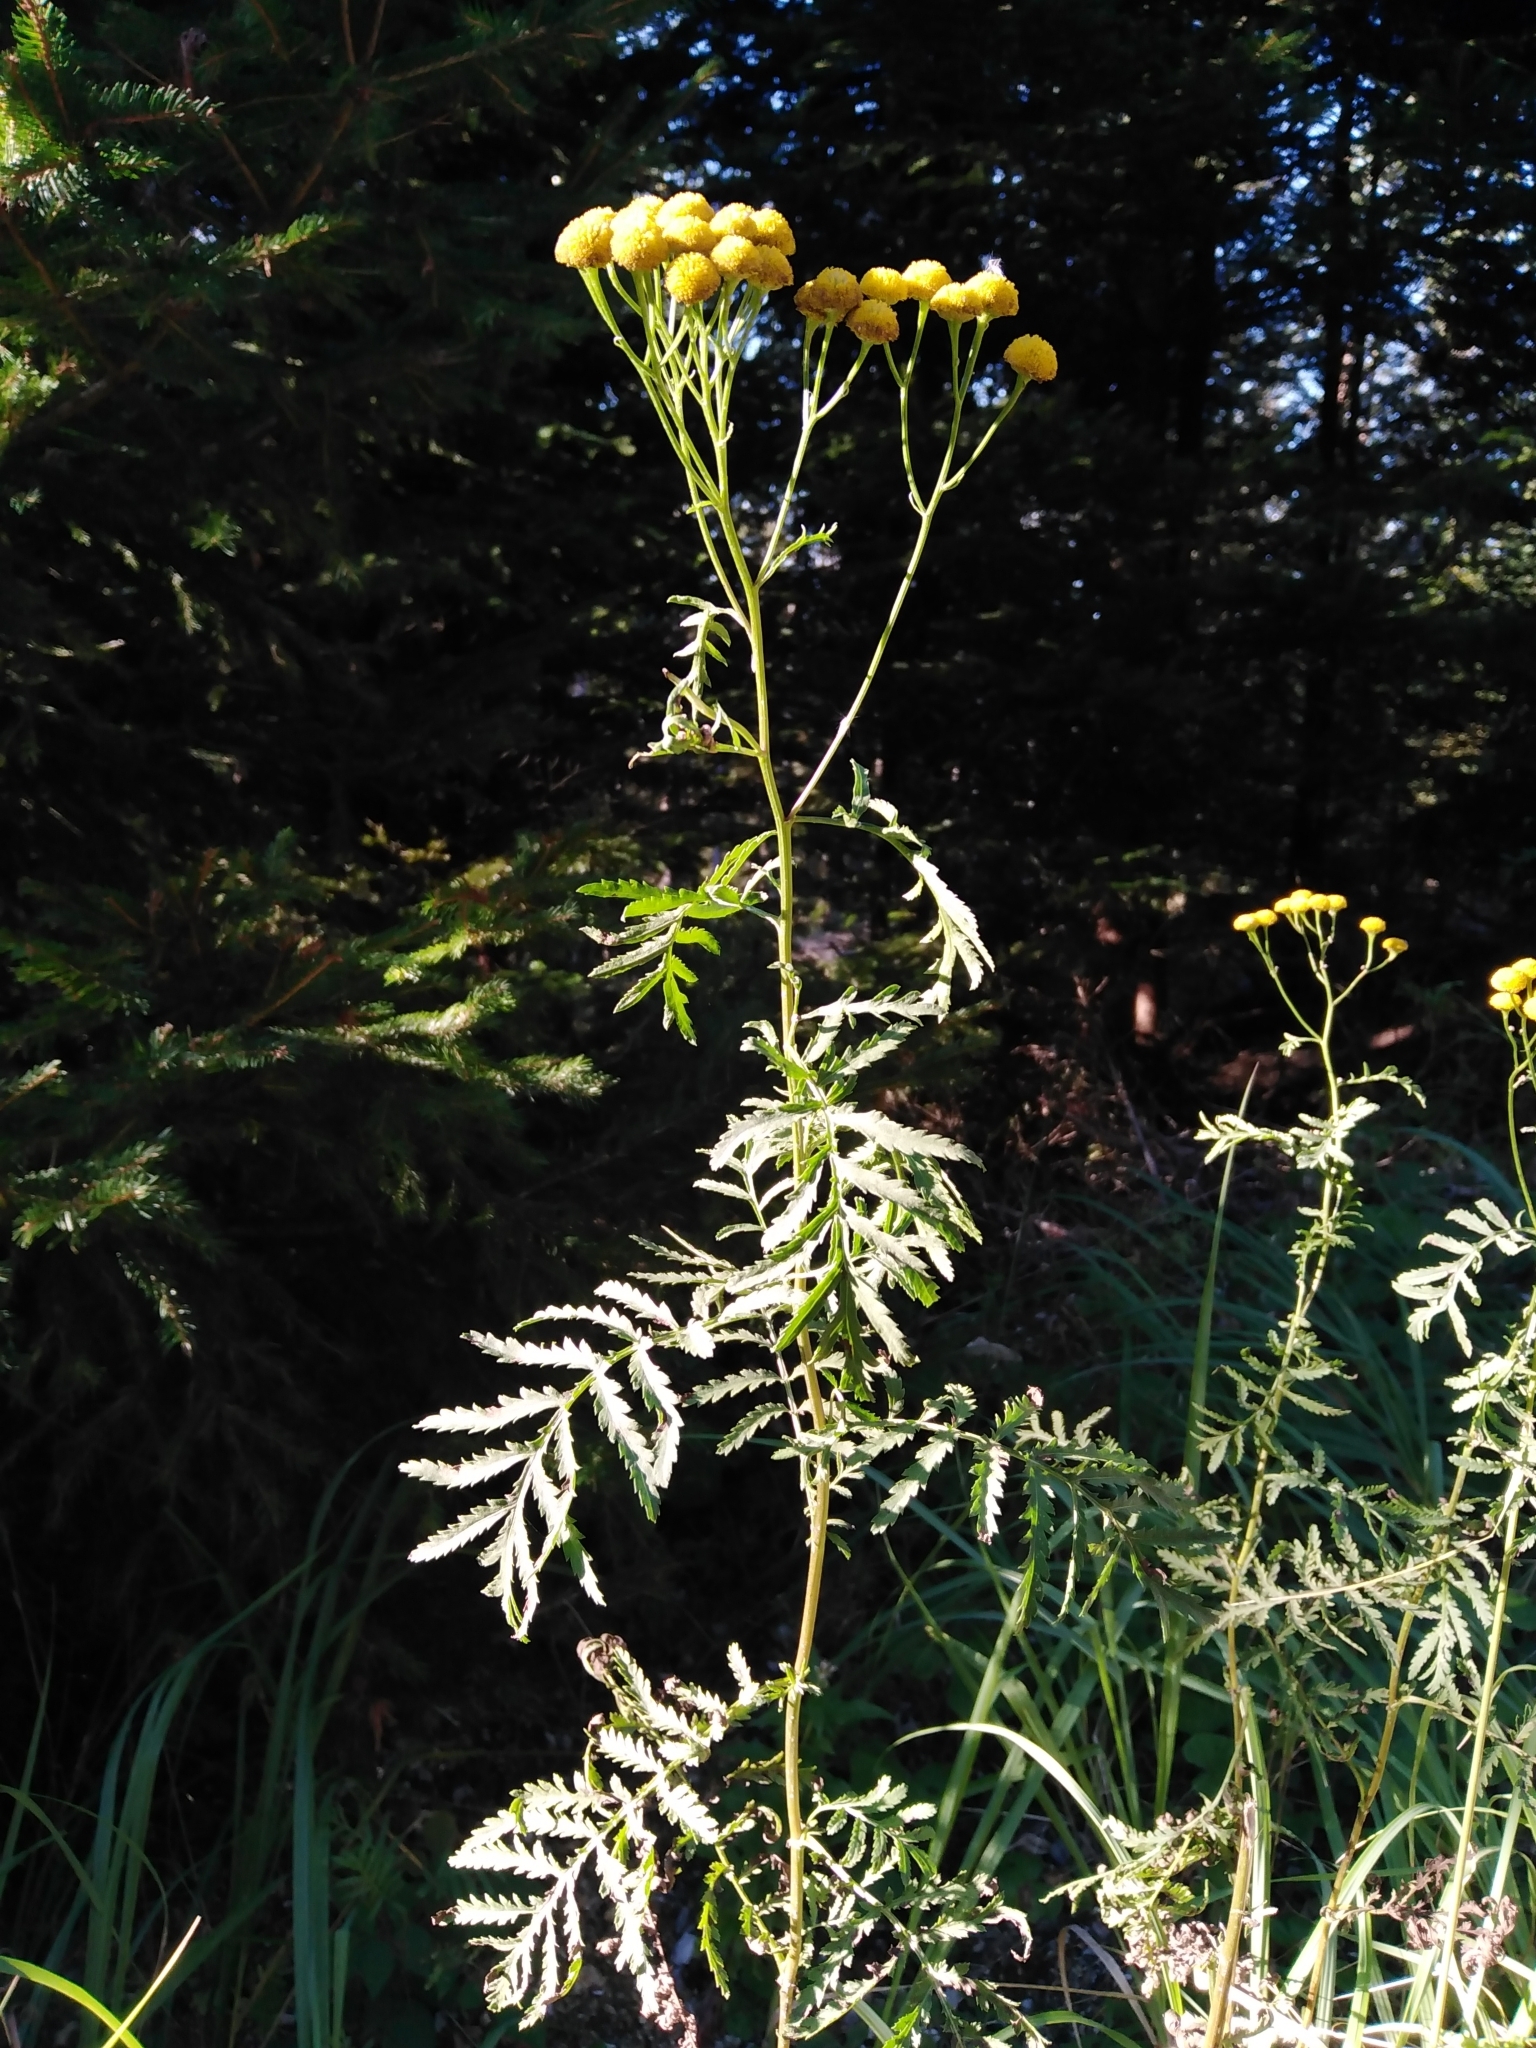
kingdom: Plantae
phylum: Tracheophyta
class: Magnoliopsida
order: Asterales
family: Asteraceae
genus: Tanacetum
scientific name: Tanacetum vulgare
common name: Common tansy
